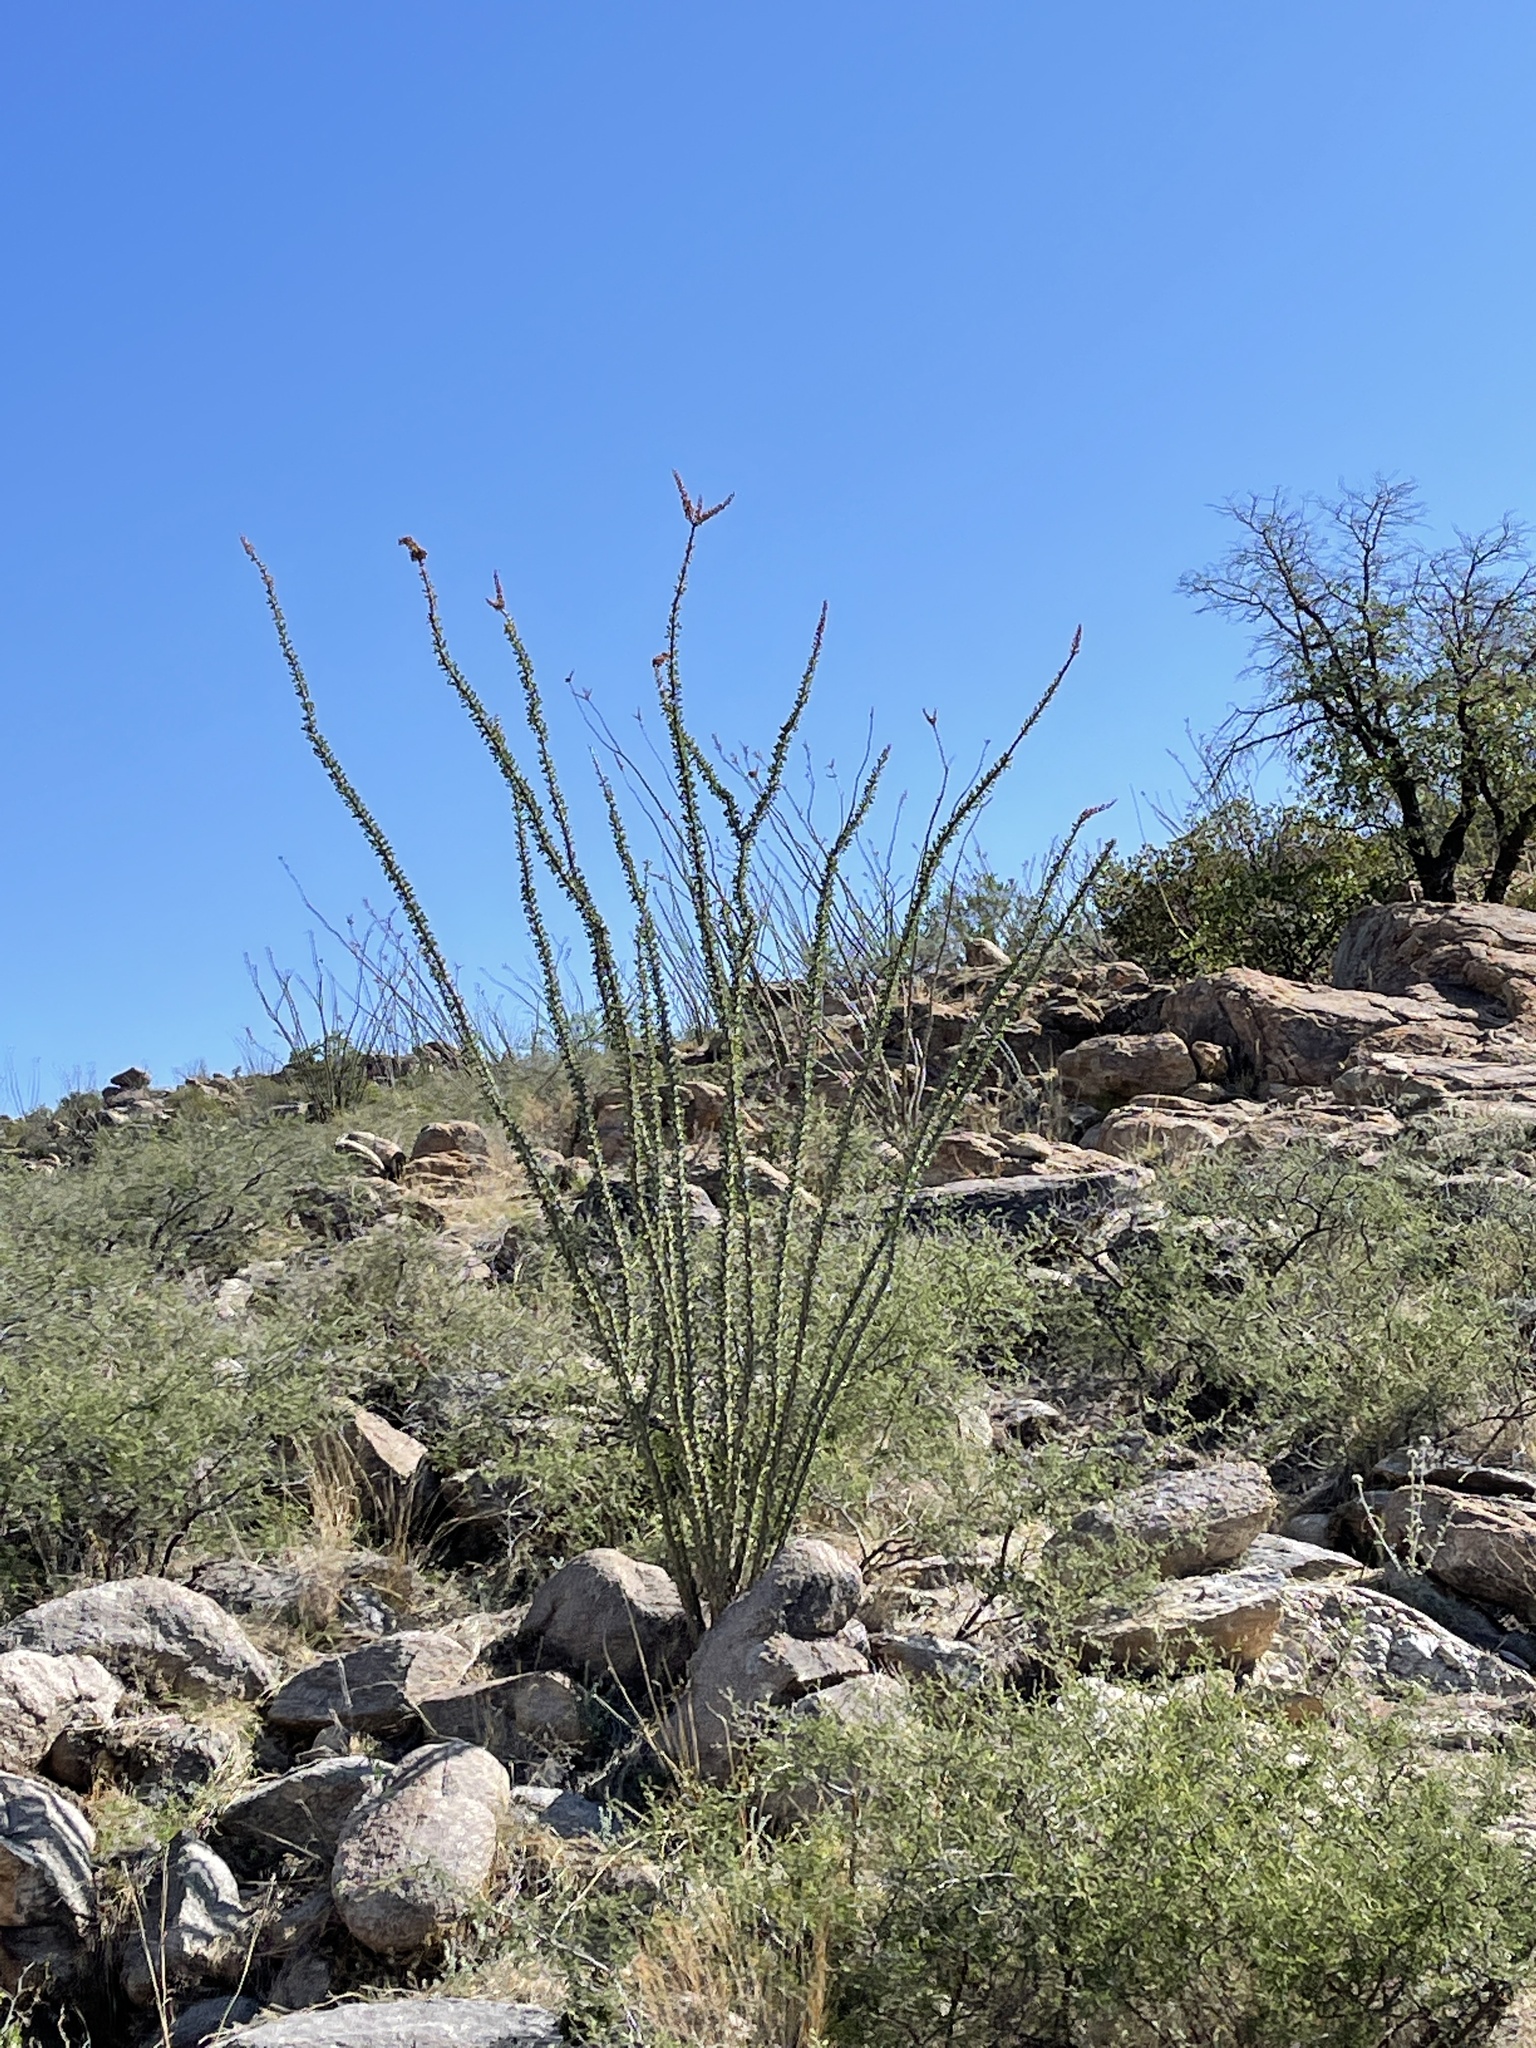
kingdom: Plantae
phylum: Tracheophyta
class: Magnoliopsida
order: Ericales
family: Fouquieriaceae
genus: Fouquieria
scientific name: Fouquieria splendens
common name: Vine-cactus
